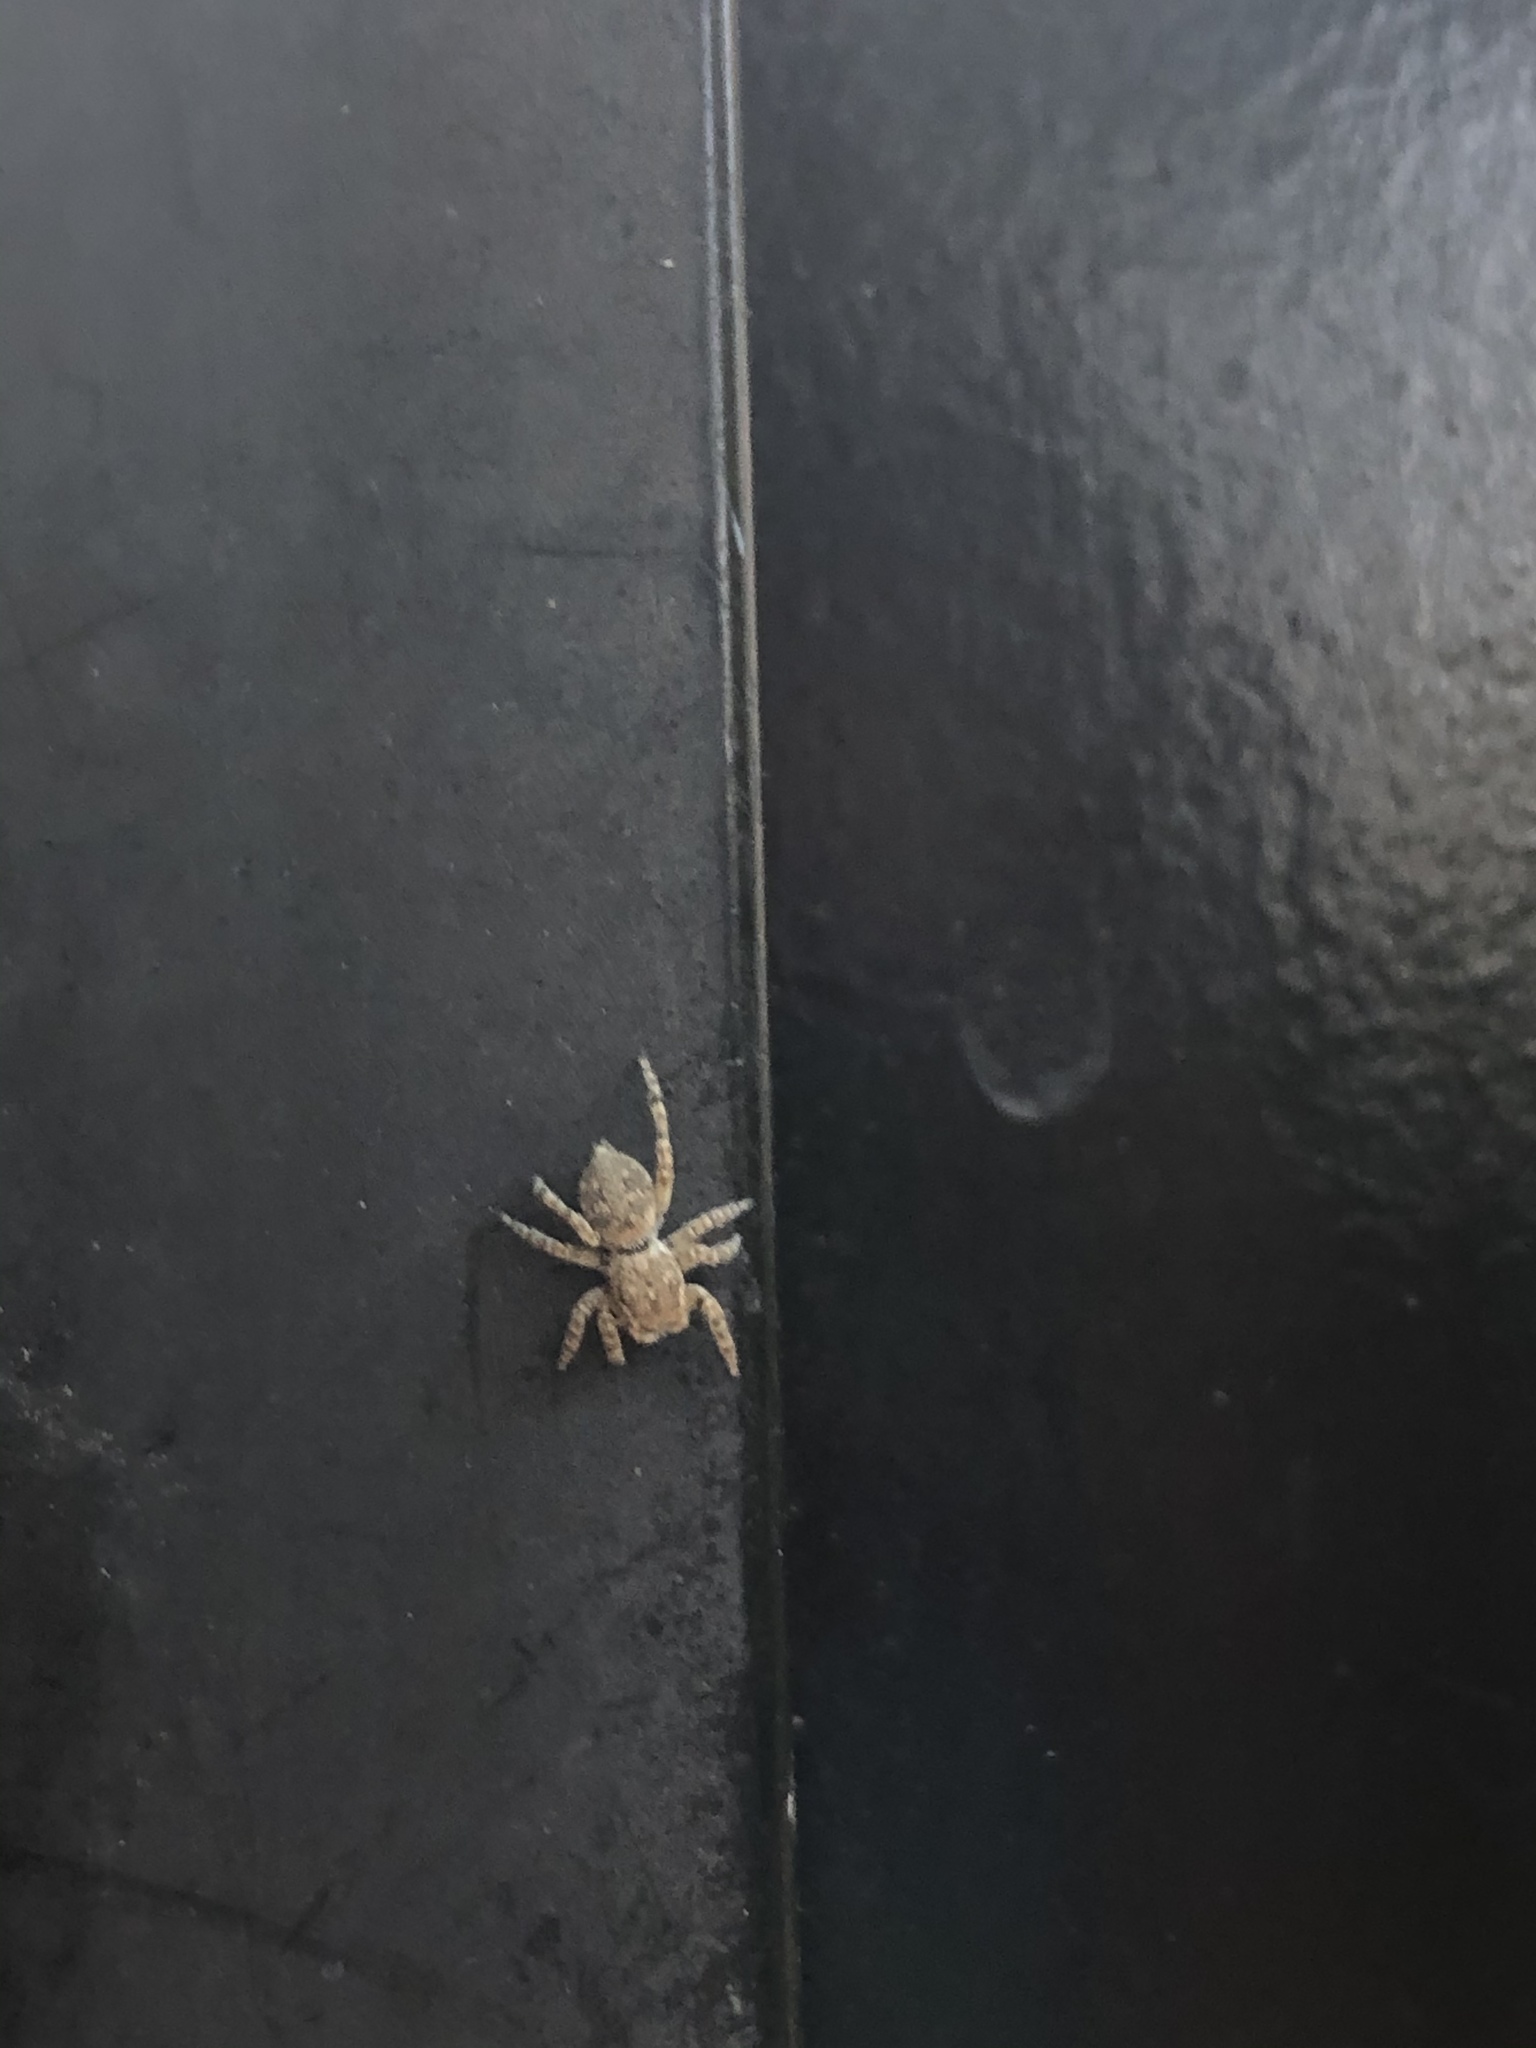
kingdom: Animalia
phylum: Arthropoda
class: Arachnida
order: Araneae
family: Salticidae
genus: Attulus
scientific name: Attulus ammophilus
